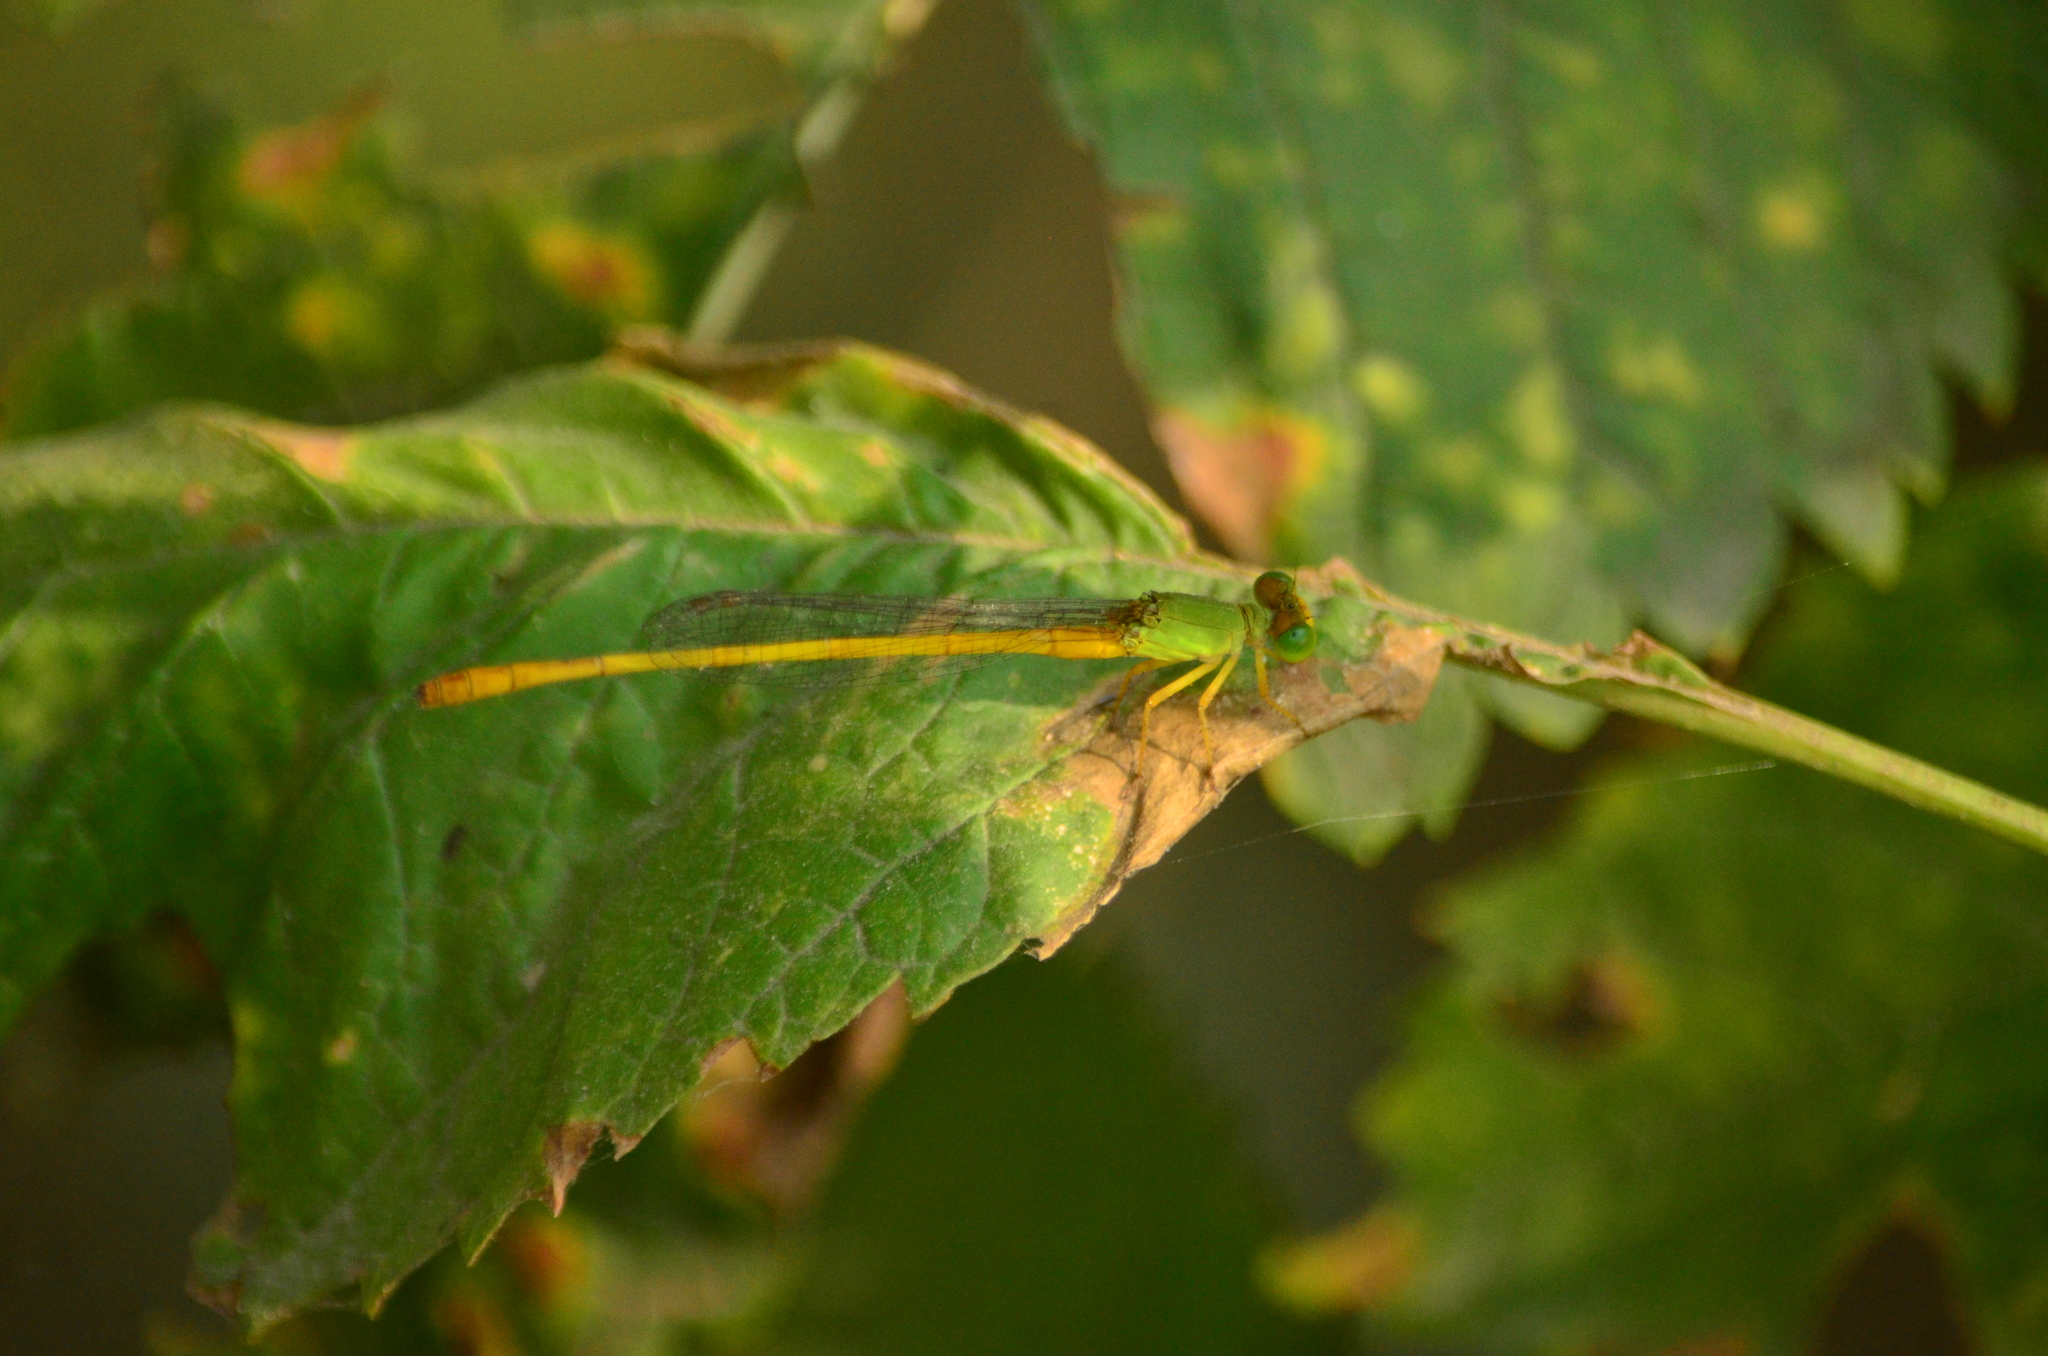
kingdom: Animalia
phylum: Arthropoda
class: Insecta
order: Odonata
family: Coenagrionidae
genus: Ceriagrion
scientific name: Ceriagrion coromandelianum
